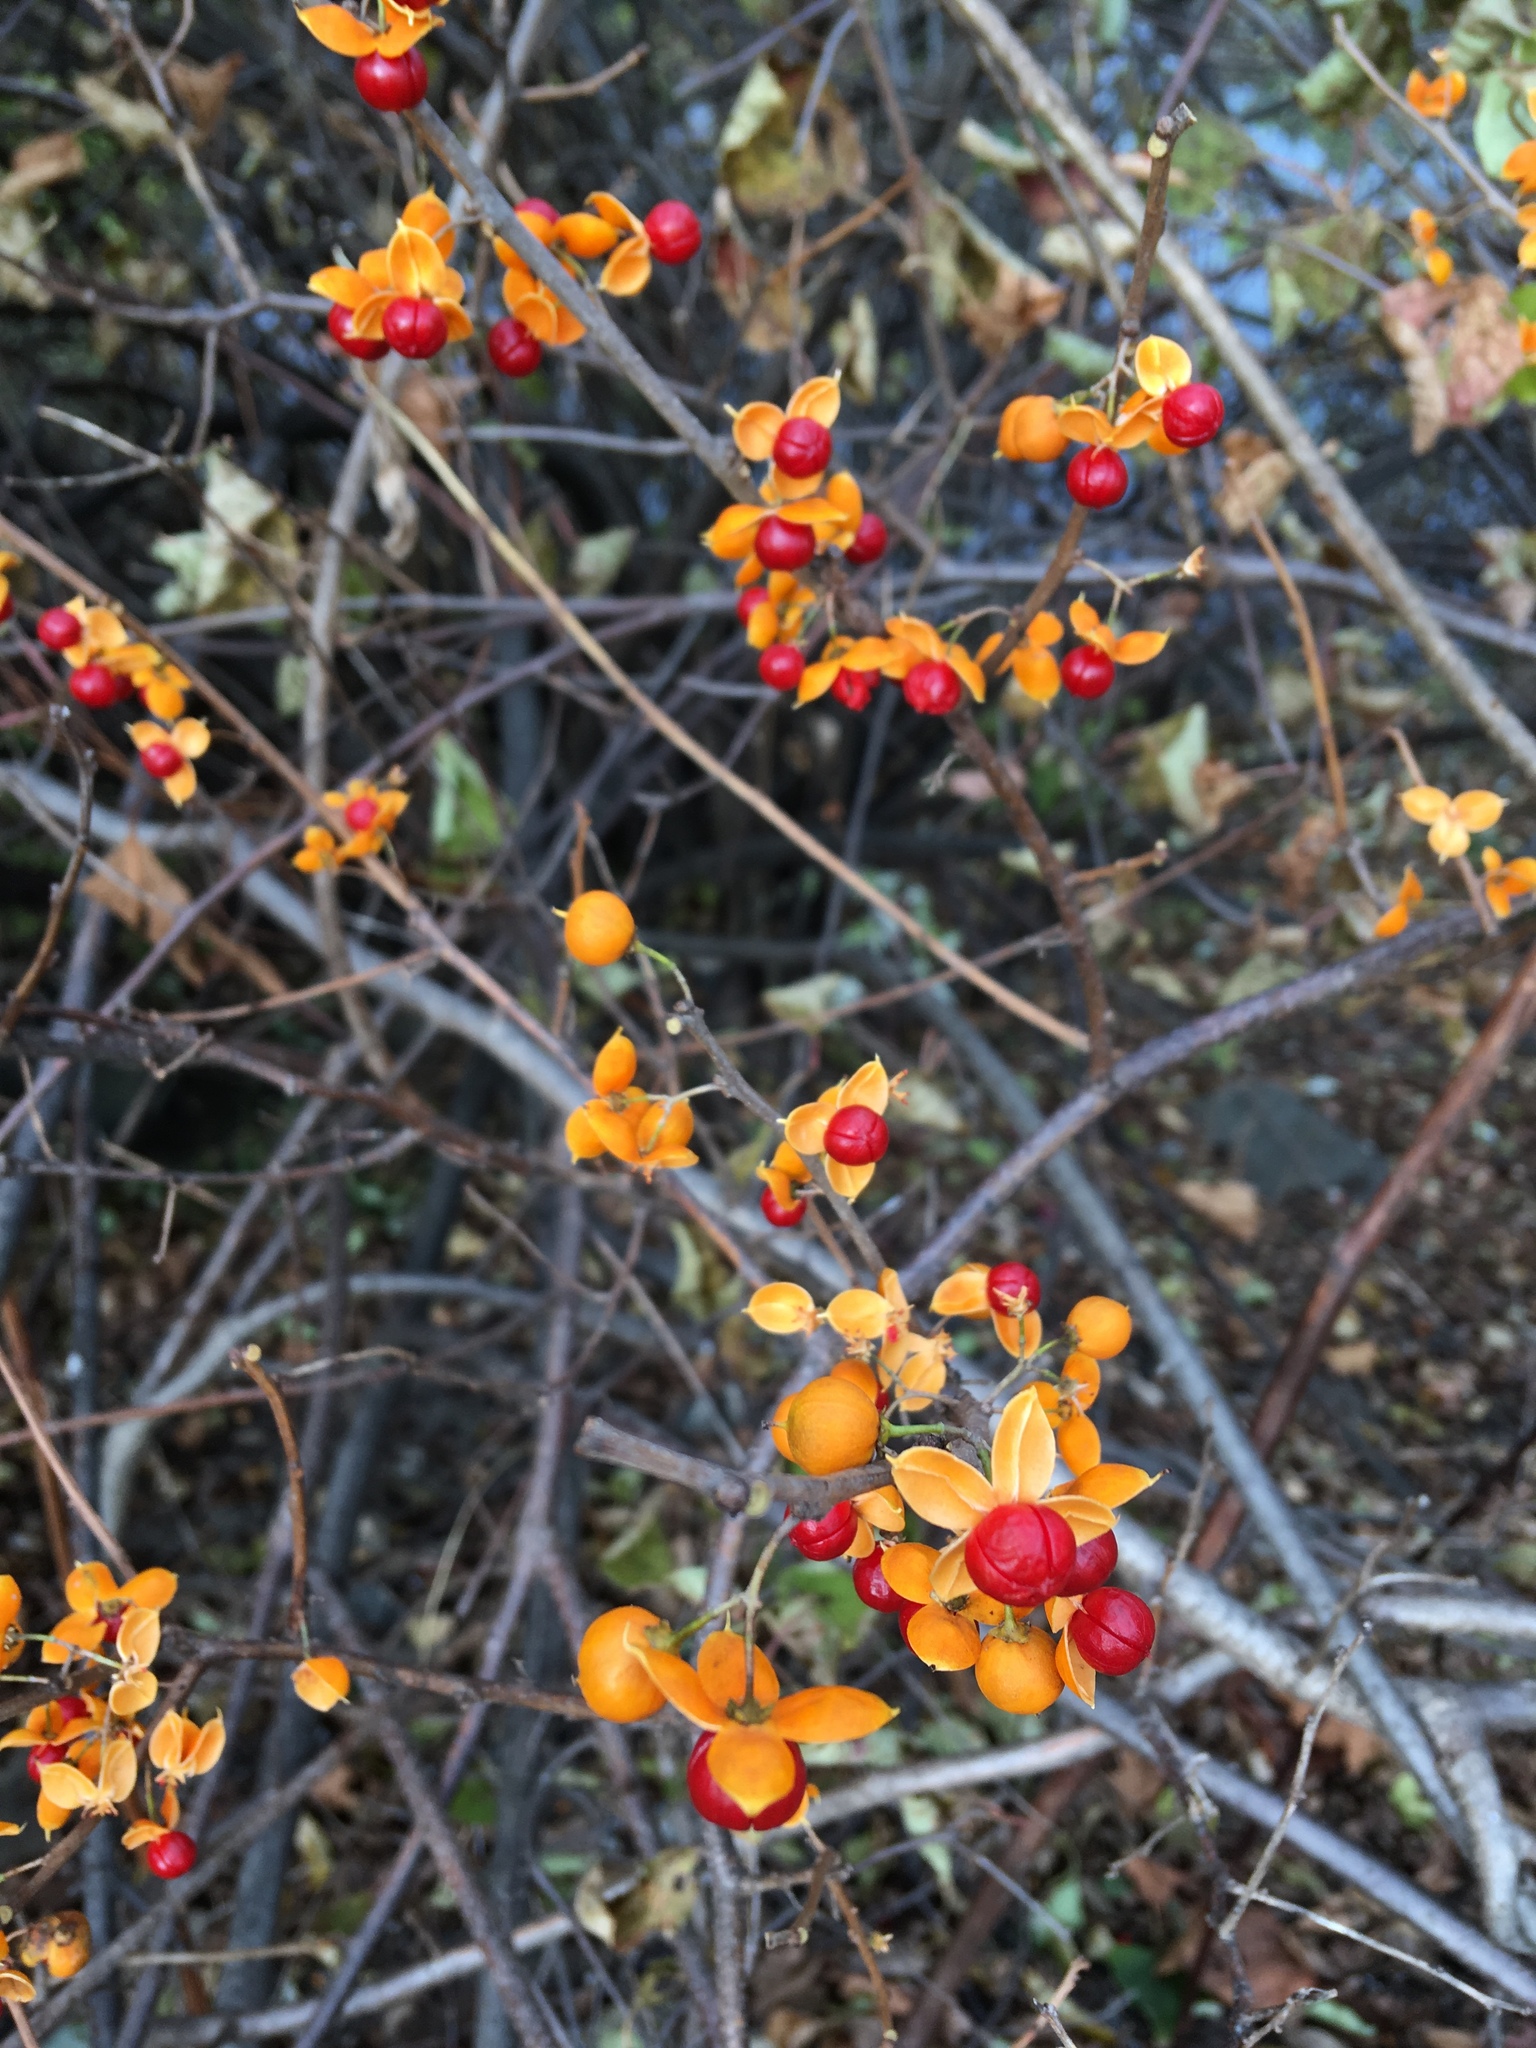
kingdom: Plantae
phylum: Tracheophyta
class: Magnoliopsida
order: Celastrales
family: Celastraceae
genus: Celastrus
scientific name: Celastrus orbiculatus
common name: Oriental bittersweet
